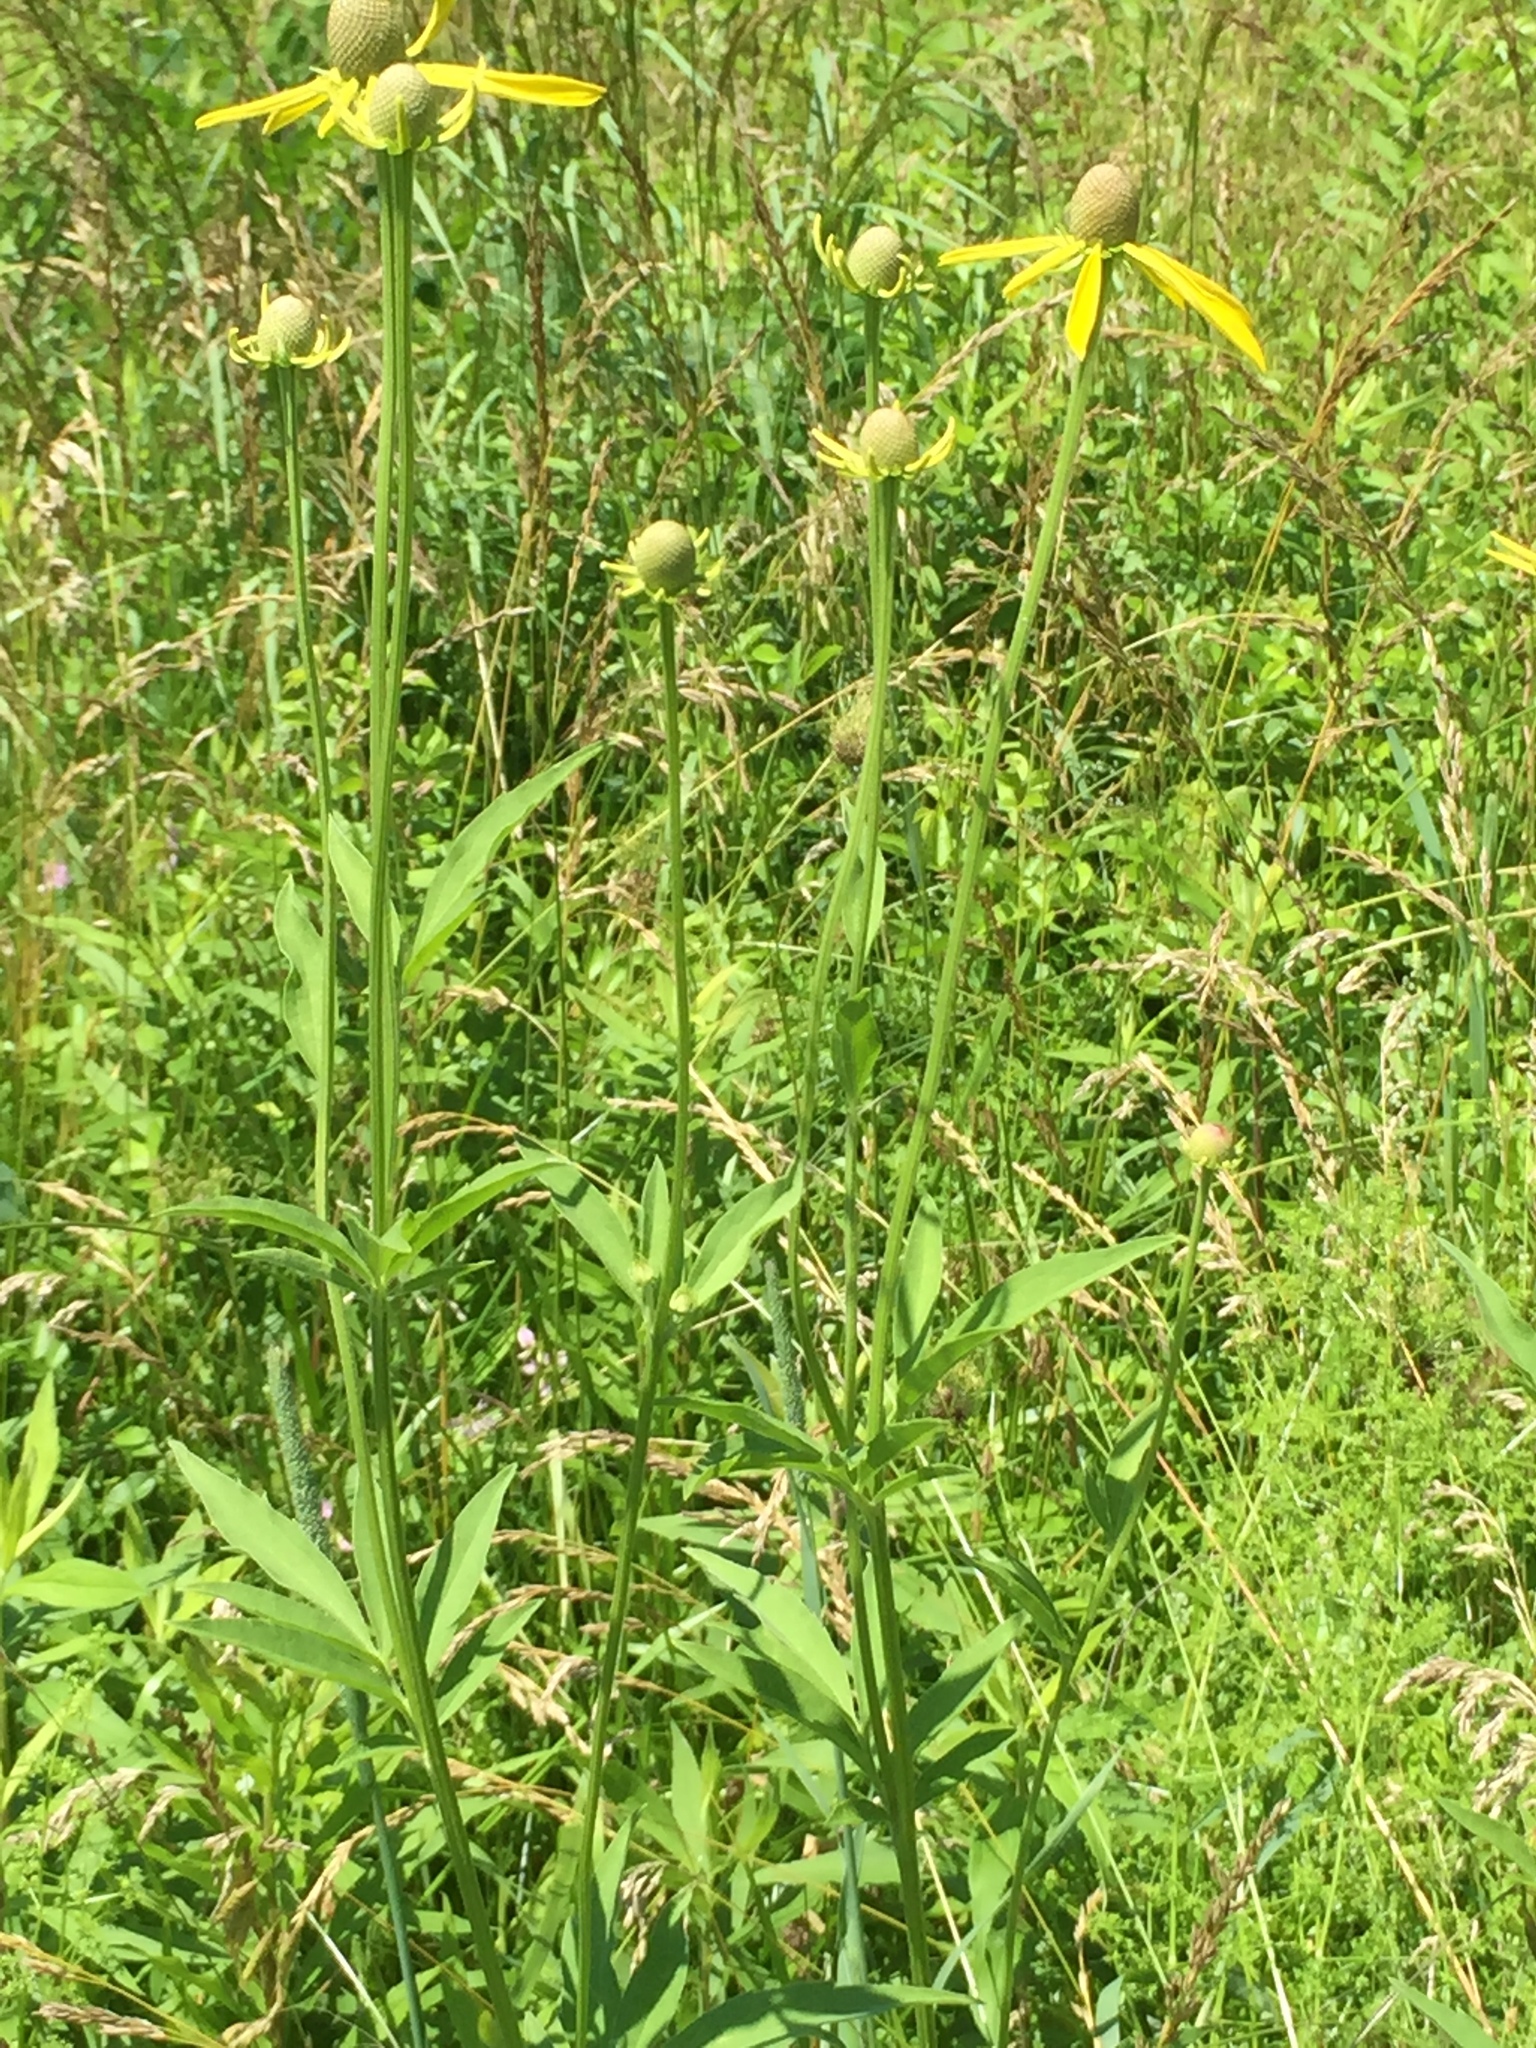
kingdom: Plantae
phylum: Tracheophyta
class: Magnoliopsida
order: Asterales
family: Asteraceae
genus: Ratibida
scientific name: Ratibida pinnata
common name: Drooping prairie-coneflower
